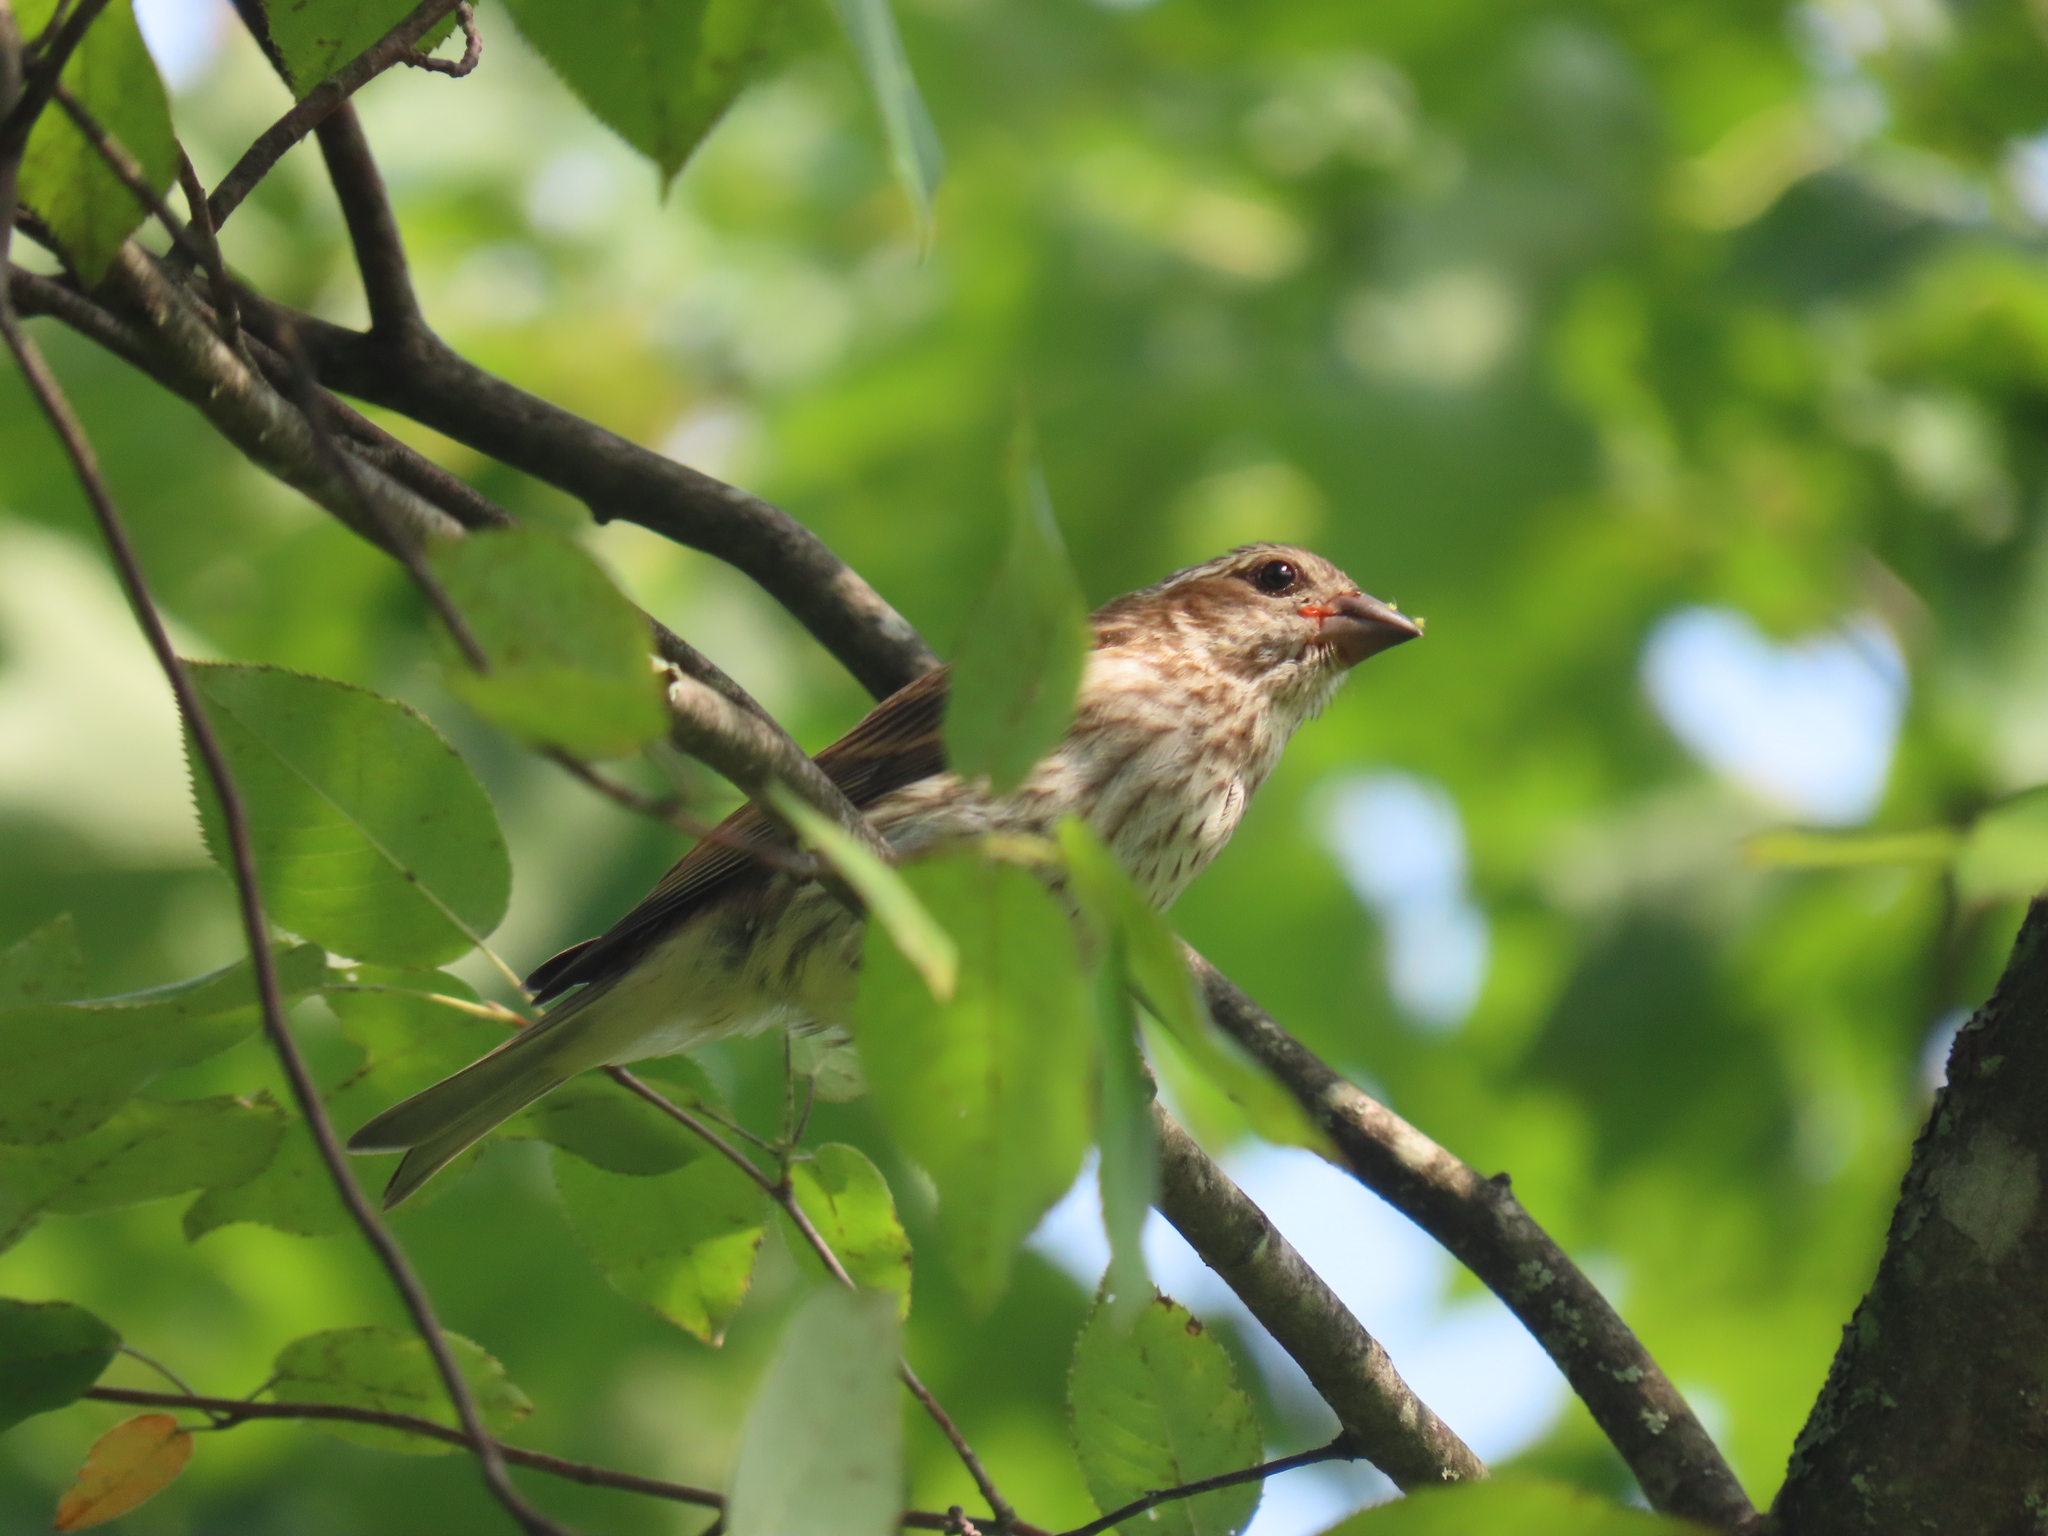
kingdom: Animalia
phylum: Chordata
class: Aves
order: Passeriformes
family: Fringillidae
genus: Haemorhous
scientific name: Haemorhous purpureus
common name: Purple finch
